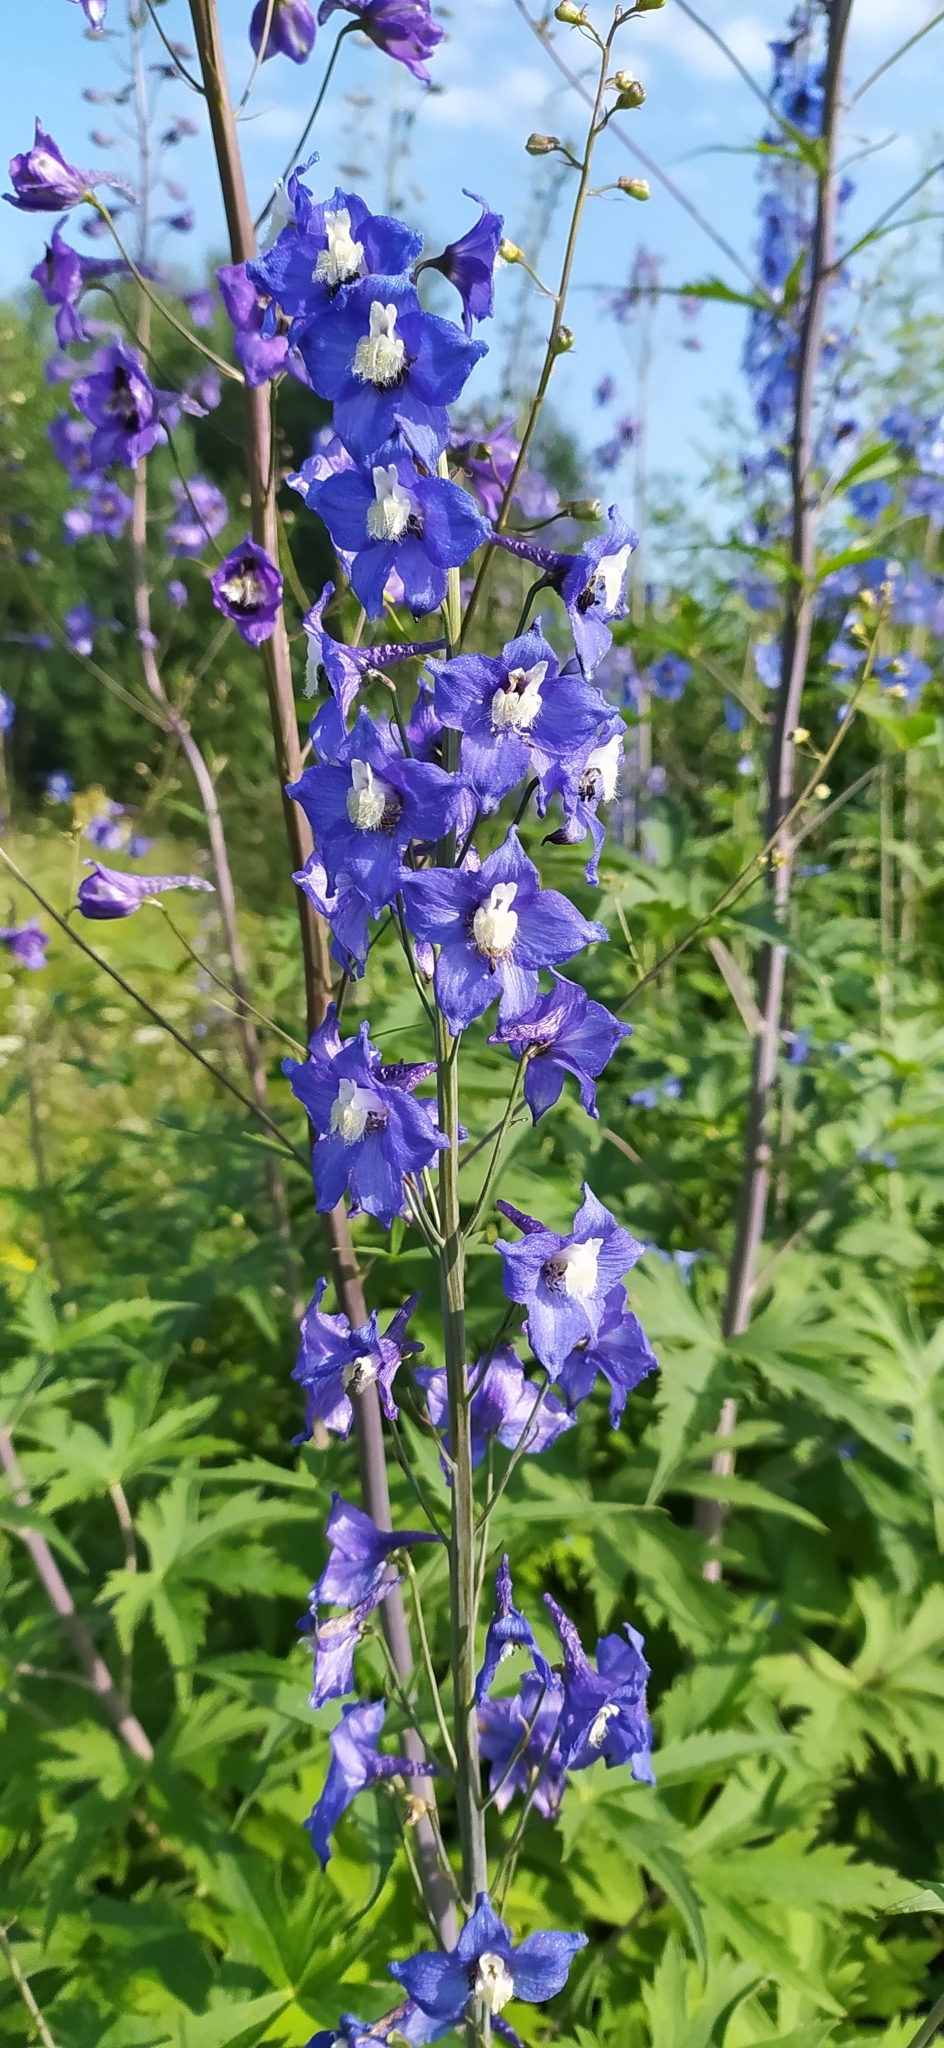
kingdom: Plantae
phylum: Tracheophyta
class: Magnoliopsida
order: Ranunculales
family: Ranunculaceae
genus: Delphinium
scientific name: Delphinium elatum
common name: Candle larkspur
